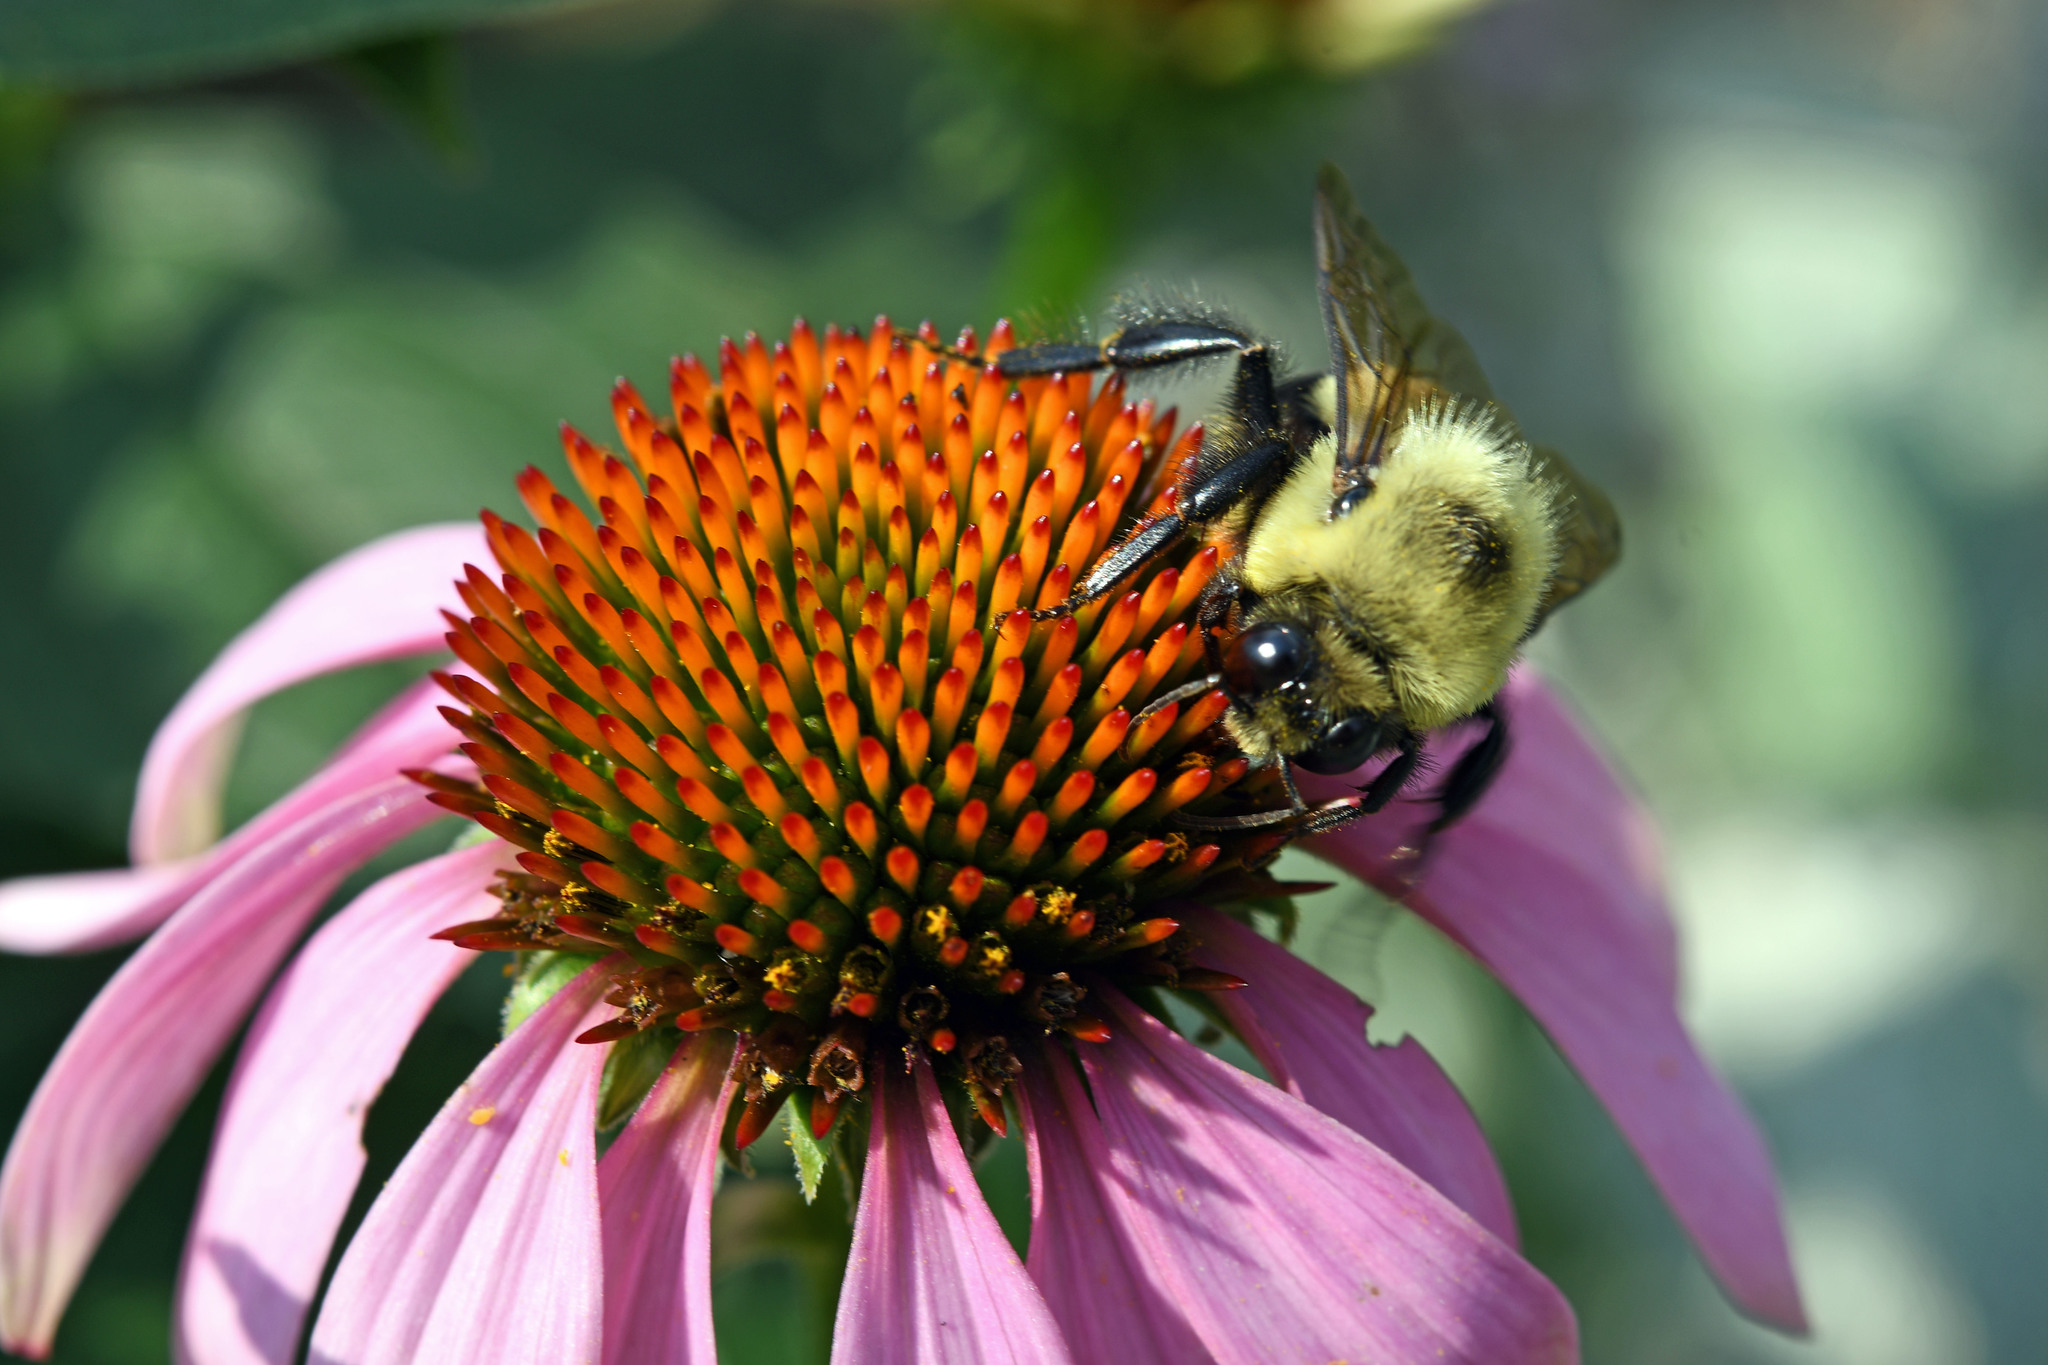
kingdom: Animalia
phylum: Arthropoda
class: Insecta
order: Hymenoptera
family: Apidae
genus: Bombus
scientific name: Bombus griseocollis
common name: Brown-belted bumble bee
